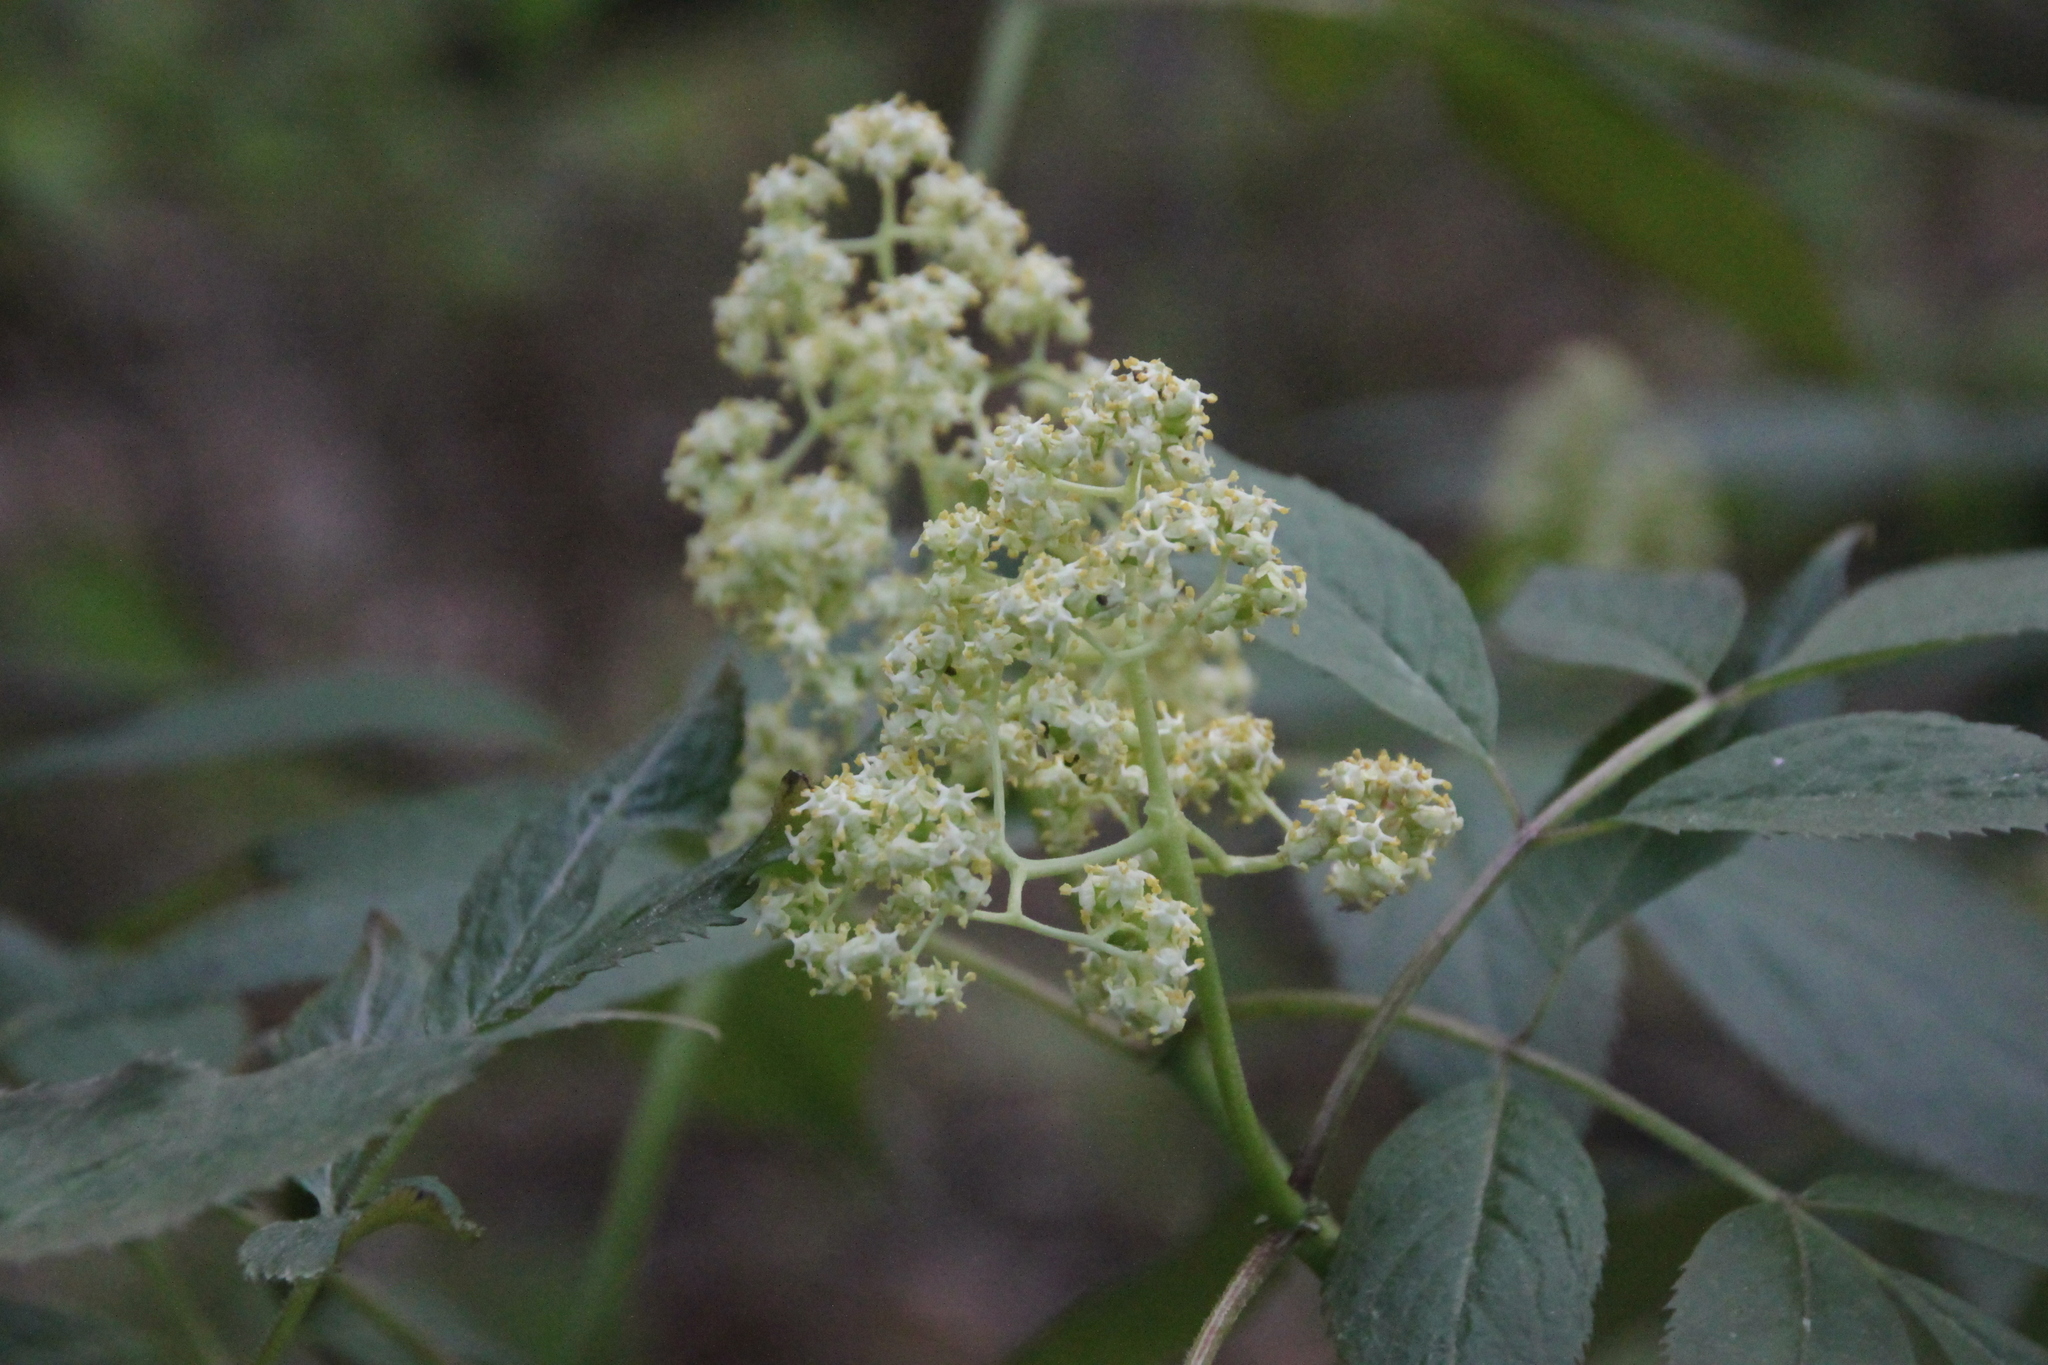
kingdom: Plantae
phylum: Tracheophyta
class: Magnoliopsida
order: Dipsacales
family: Viburnaceae
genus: Sambucus
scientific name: Sambucus racemosa
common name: Red-berried elder
